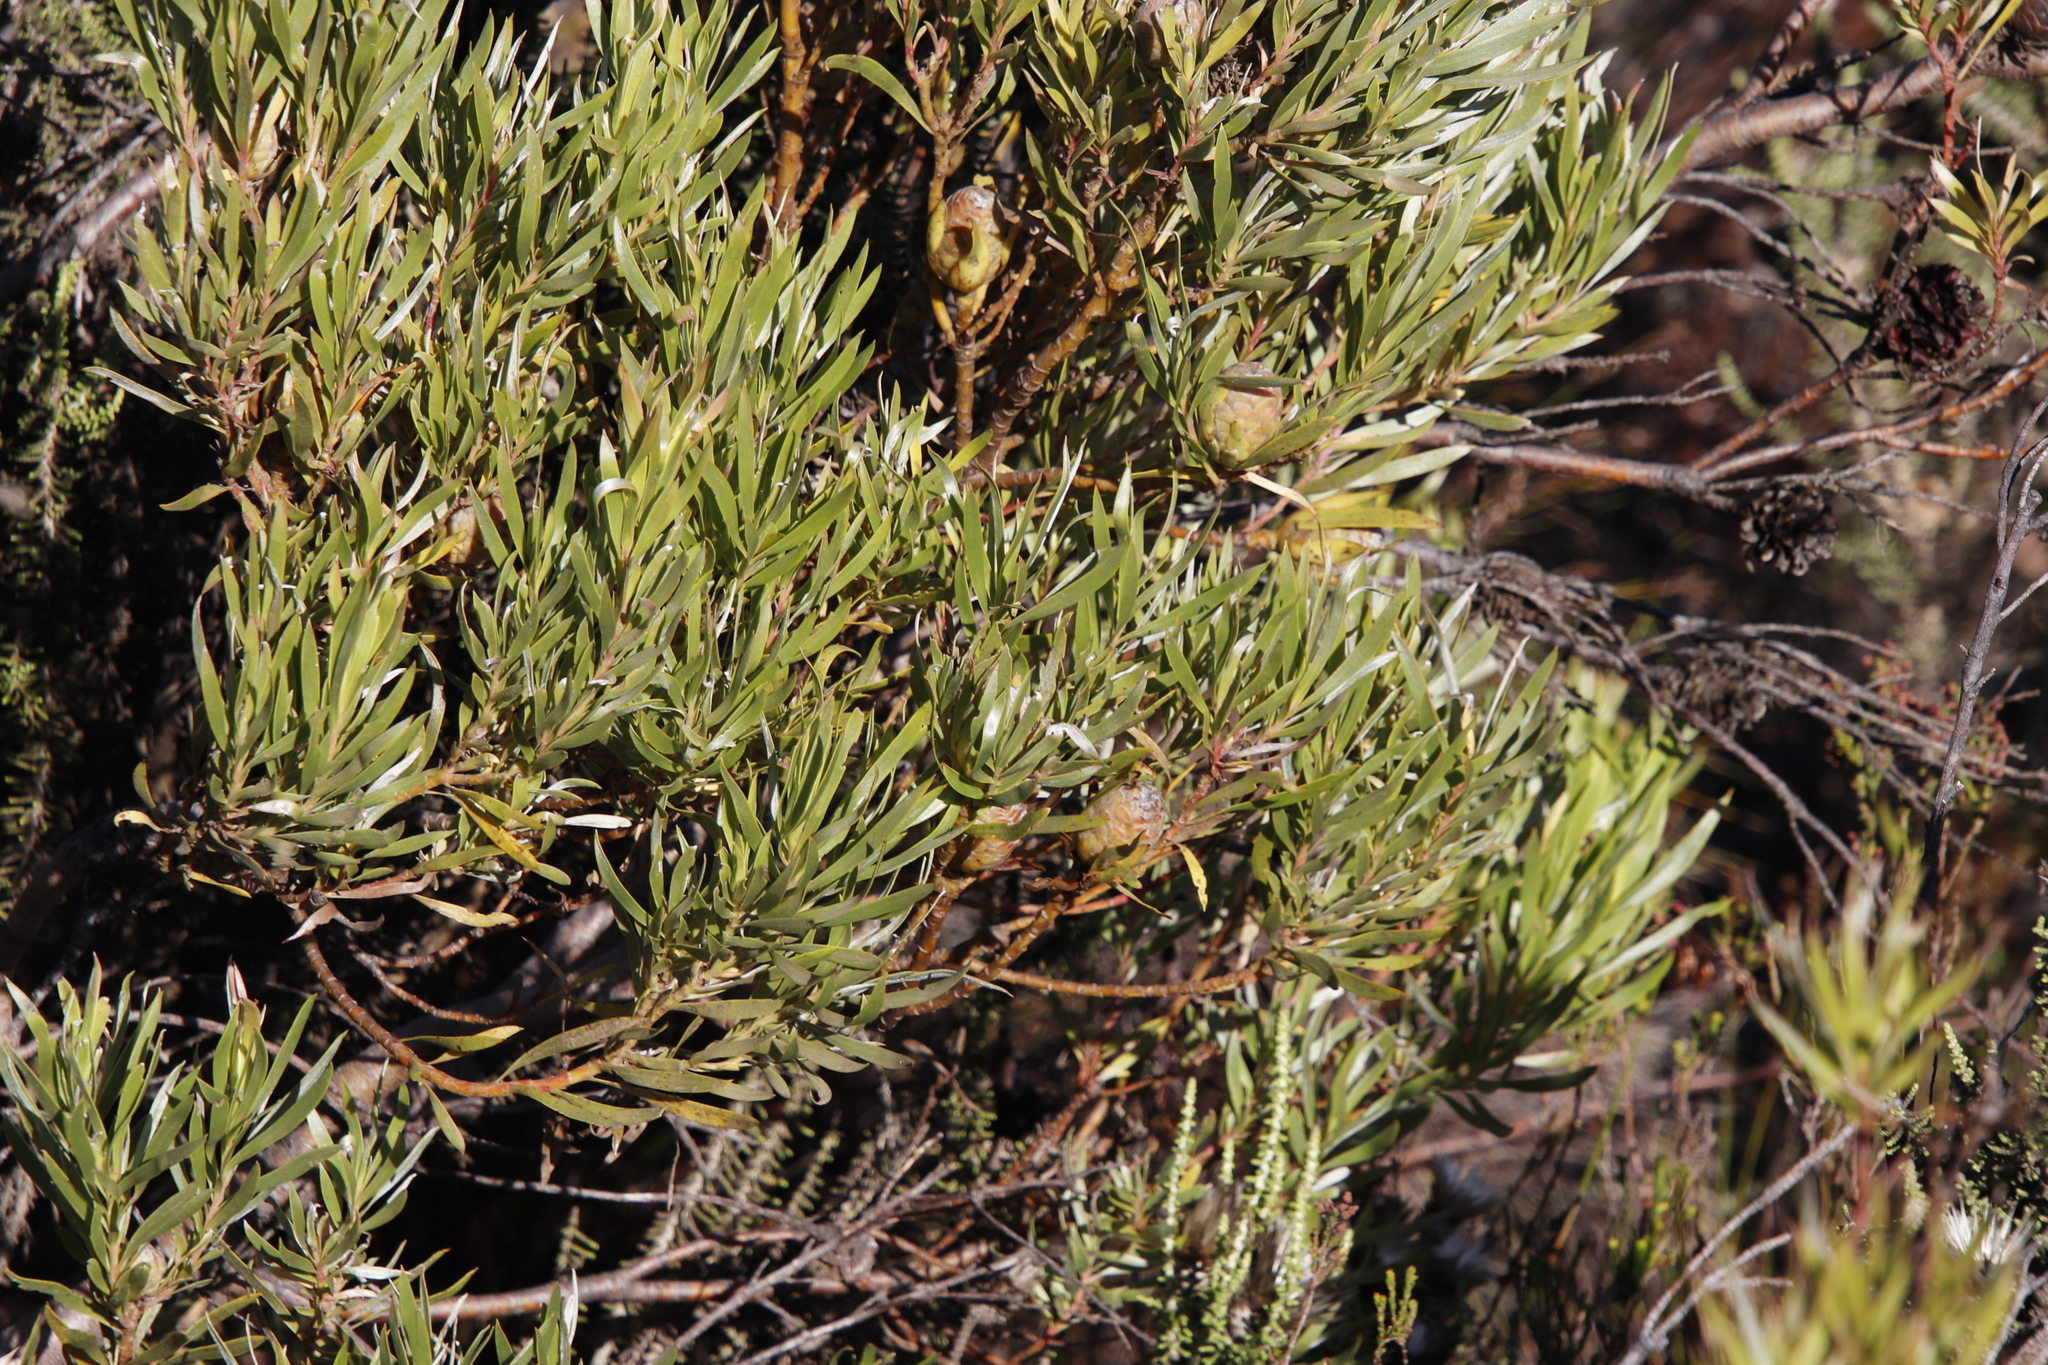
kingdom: Plantae
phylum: Tracheophyta
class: Magnoliopsida
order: Proteales
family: Proteaceae
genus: Leucadendron
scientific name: Leucadendron xanthoconus
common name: Sickle-leaf conebush
